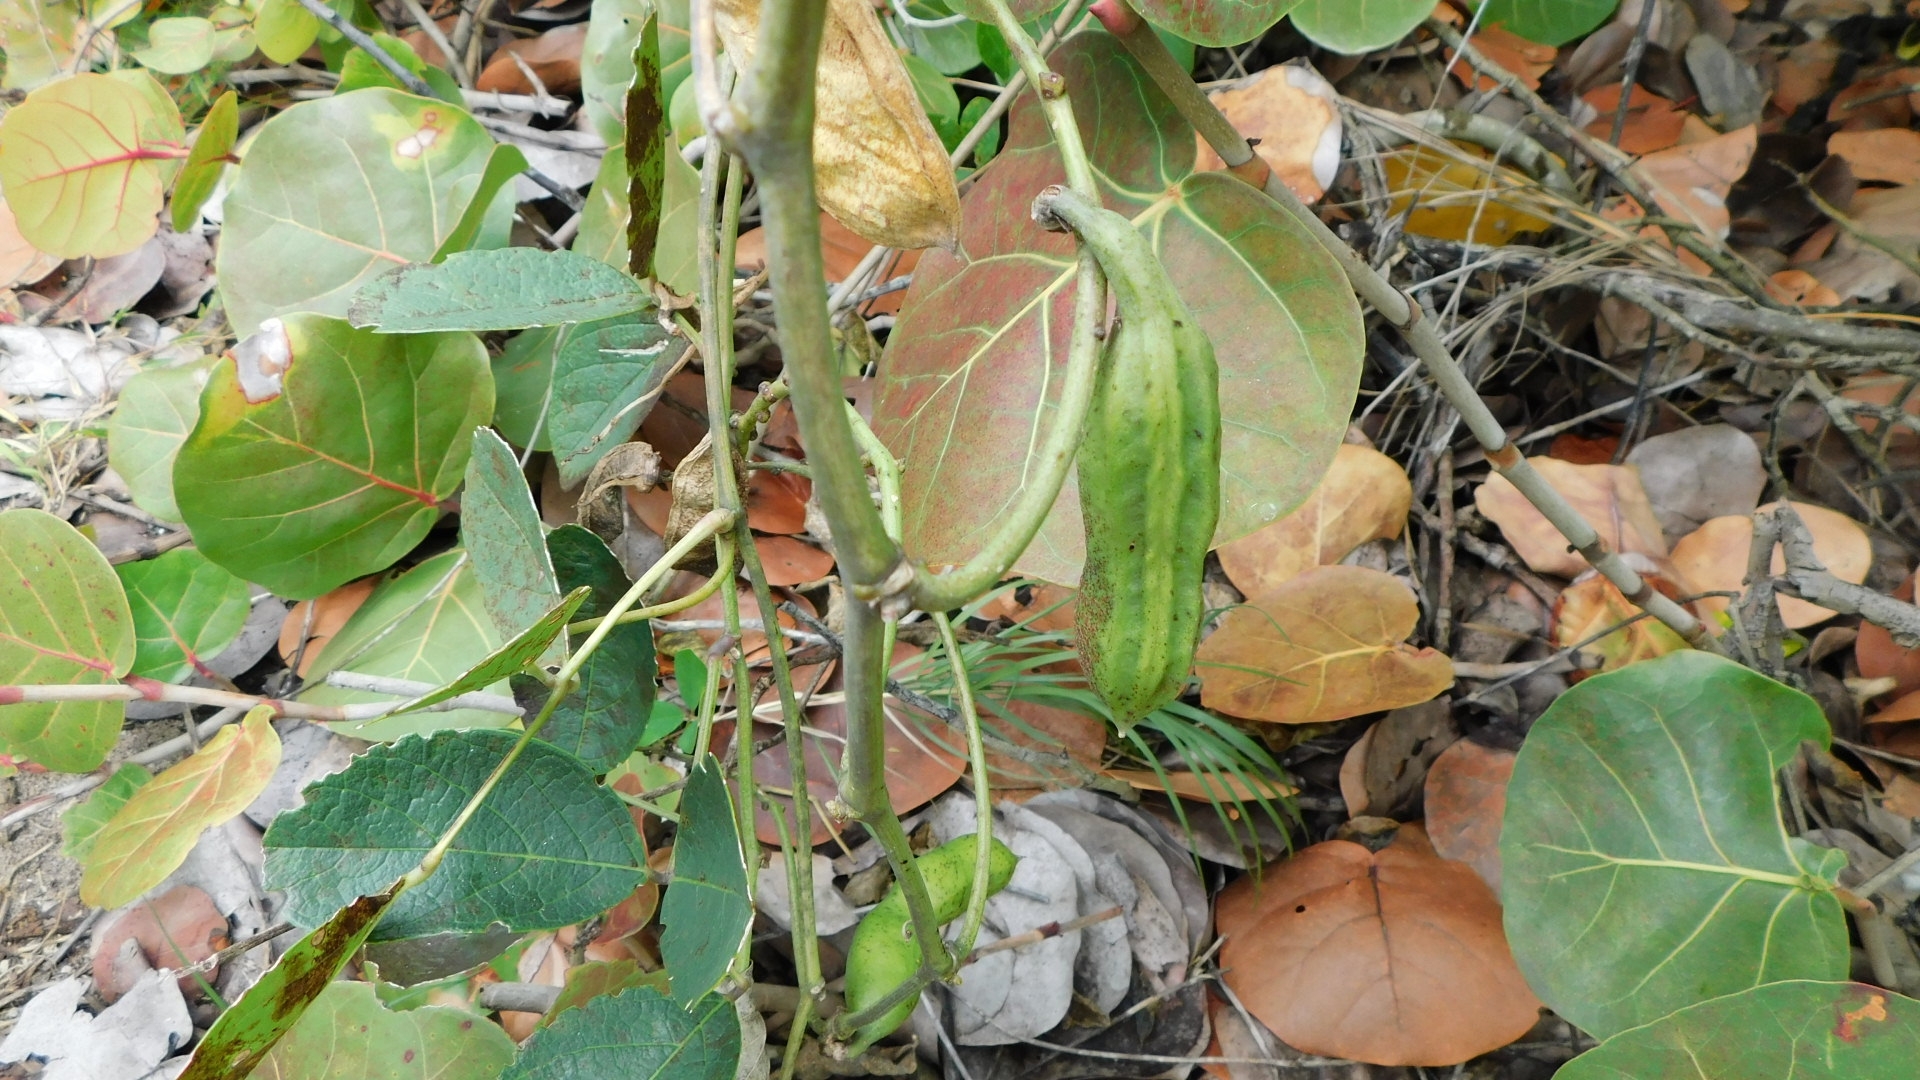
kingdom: Plantae
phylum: Tracheophyta
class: Magnoliopsida
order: Fabales
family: Fabaceae
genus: Canavalia
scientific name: Canavalia rosea
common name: Beach-bean
